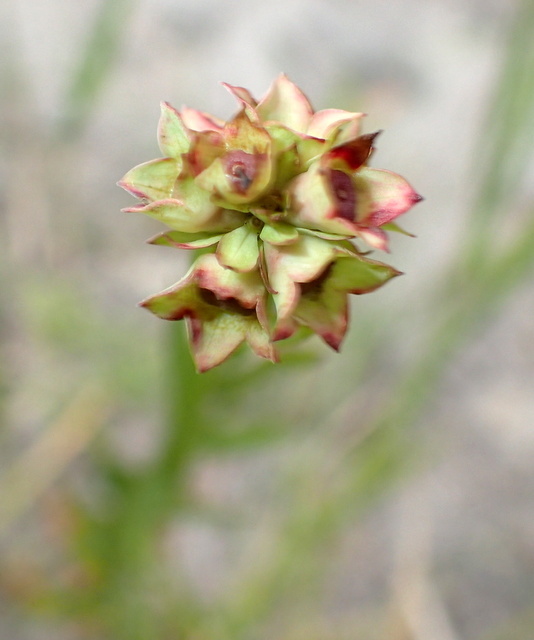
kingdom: Plantae
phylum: Tracheophyta
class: Magnoliopsida
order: Myrtales
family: Onagraceae
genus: Ludwigia
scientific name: Ludwigia suffruticosa
